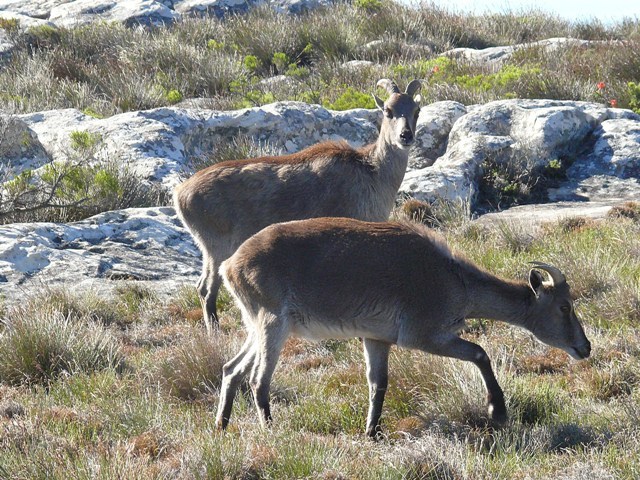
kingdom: Animalia
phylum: Chordata
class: Mammalia
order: Artiodactyla
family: Bovidae
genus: Hemitragus
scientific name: Hemitragus jemlahicus
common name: Himalayan tahr
